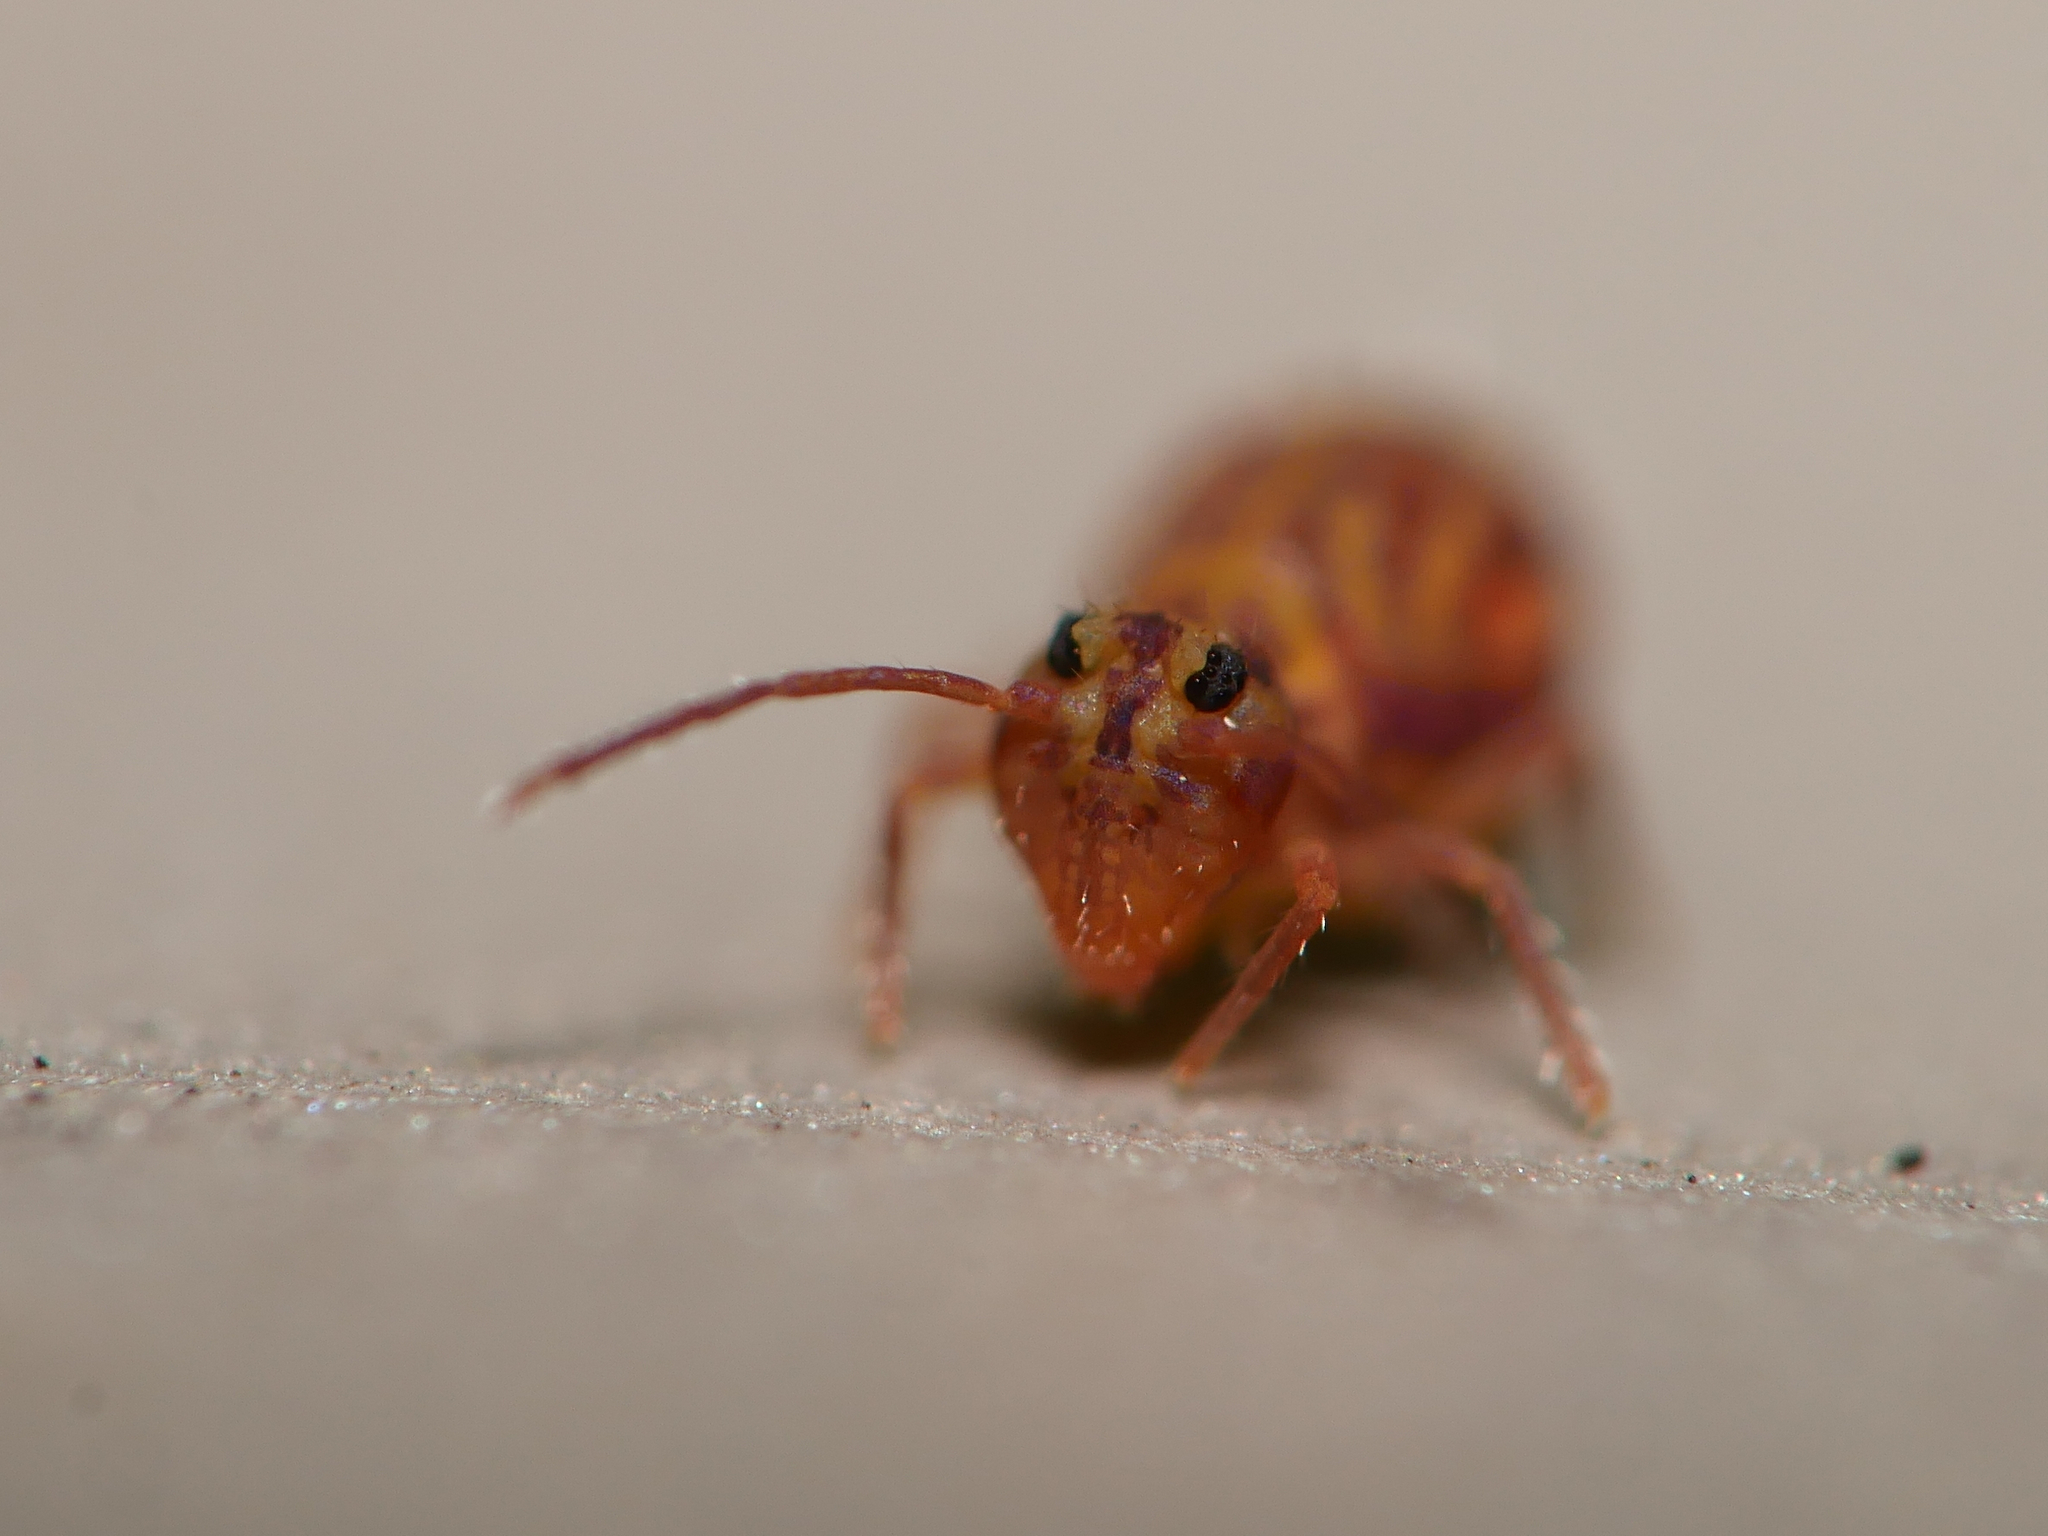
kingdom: Animalia
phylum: Arthropoda
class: Collembola
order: Symphypleona
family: Dicyrtomidae
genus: Dicyrtomina
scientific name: Dicyrtomina ornata
